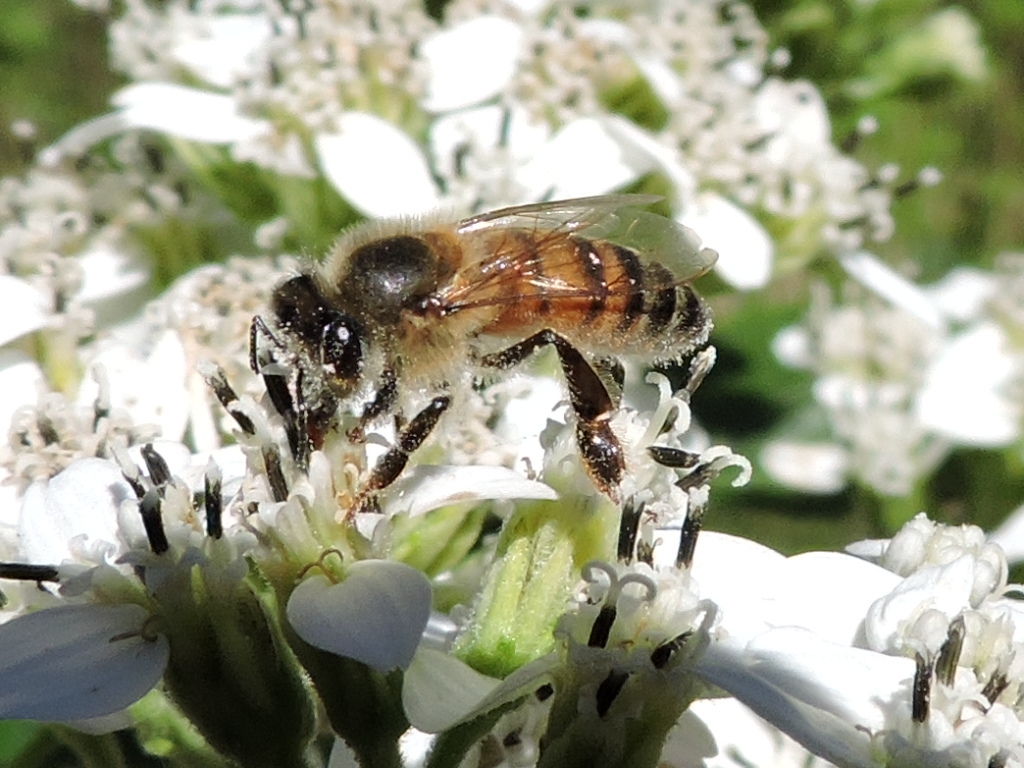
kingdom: Animalia
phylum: Arthropoda
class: Insecta
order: Hymenoptera
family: Apidae
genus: Apis
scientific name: Apis mellifera
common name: Honey bee
